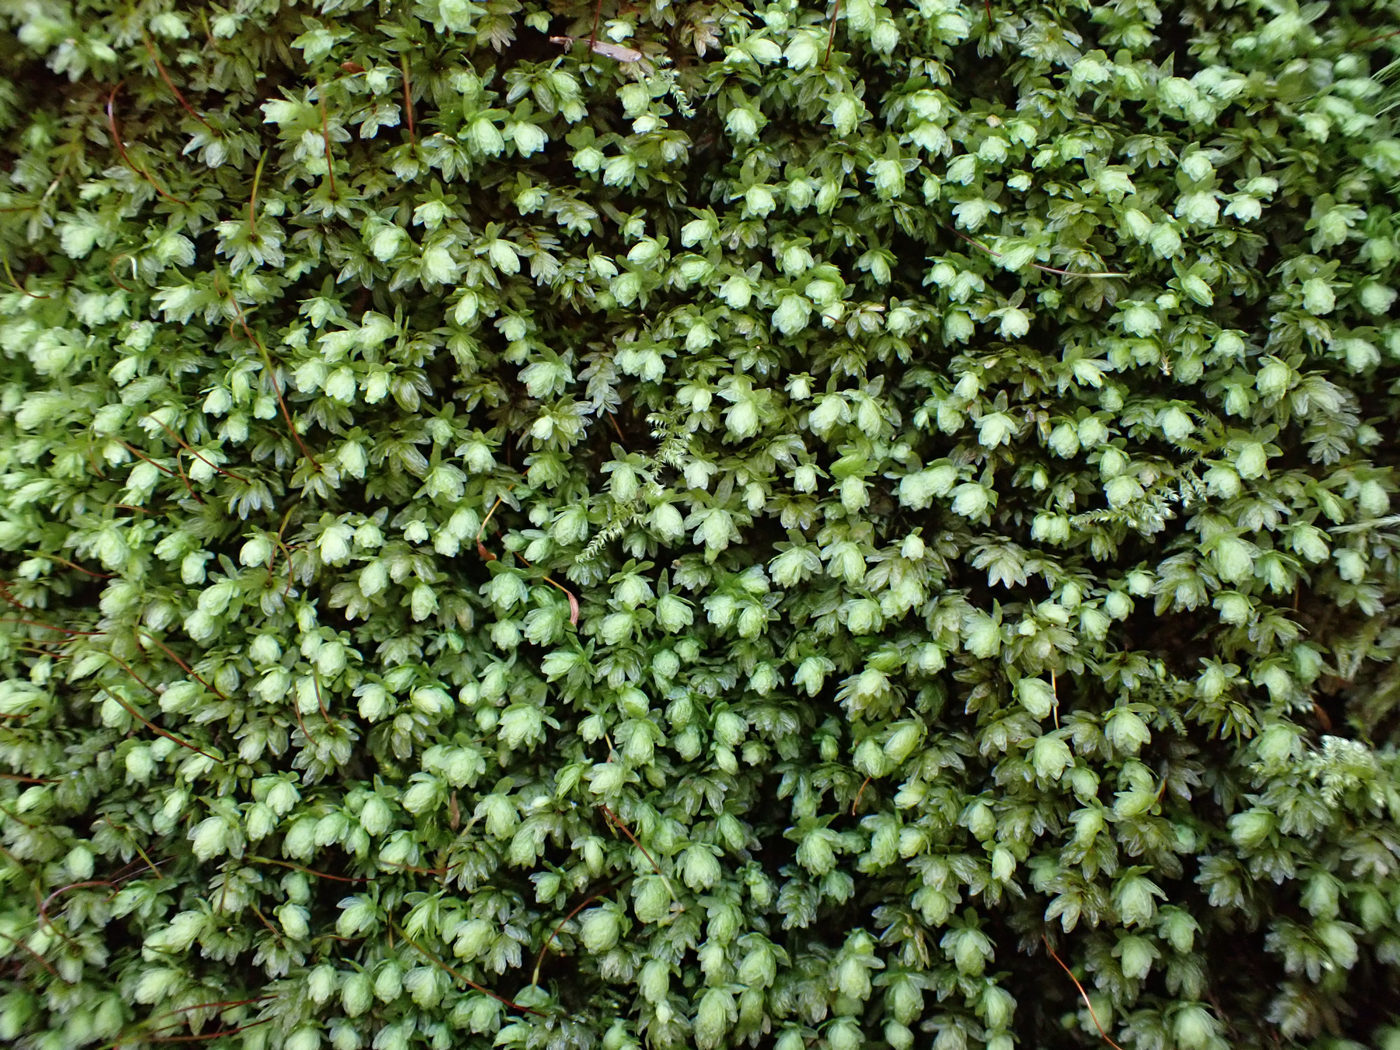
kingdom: Plantae
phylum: Bryophyta
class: Bryopsida
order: Aulacomniales
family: Aulacomniaceae
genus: Aulacomnium
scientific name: Aulacomnium heterostichum
